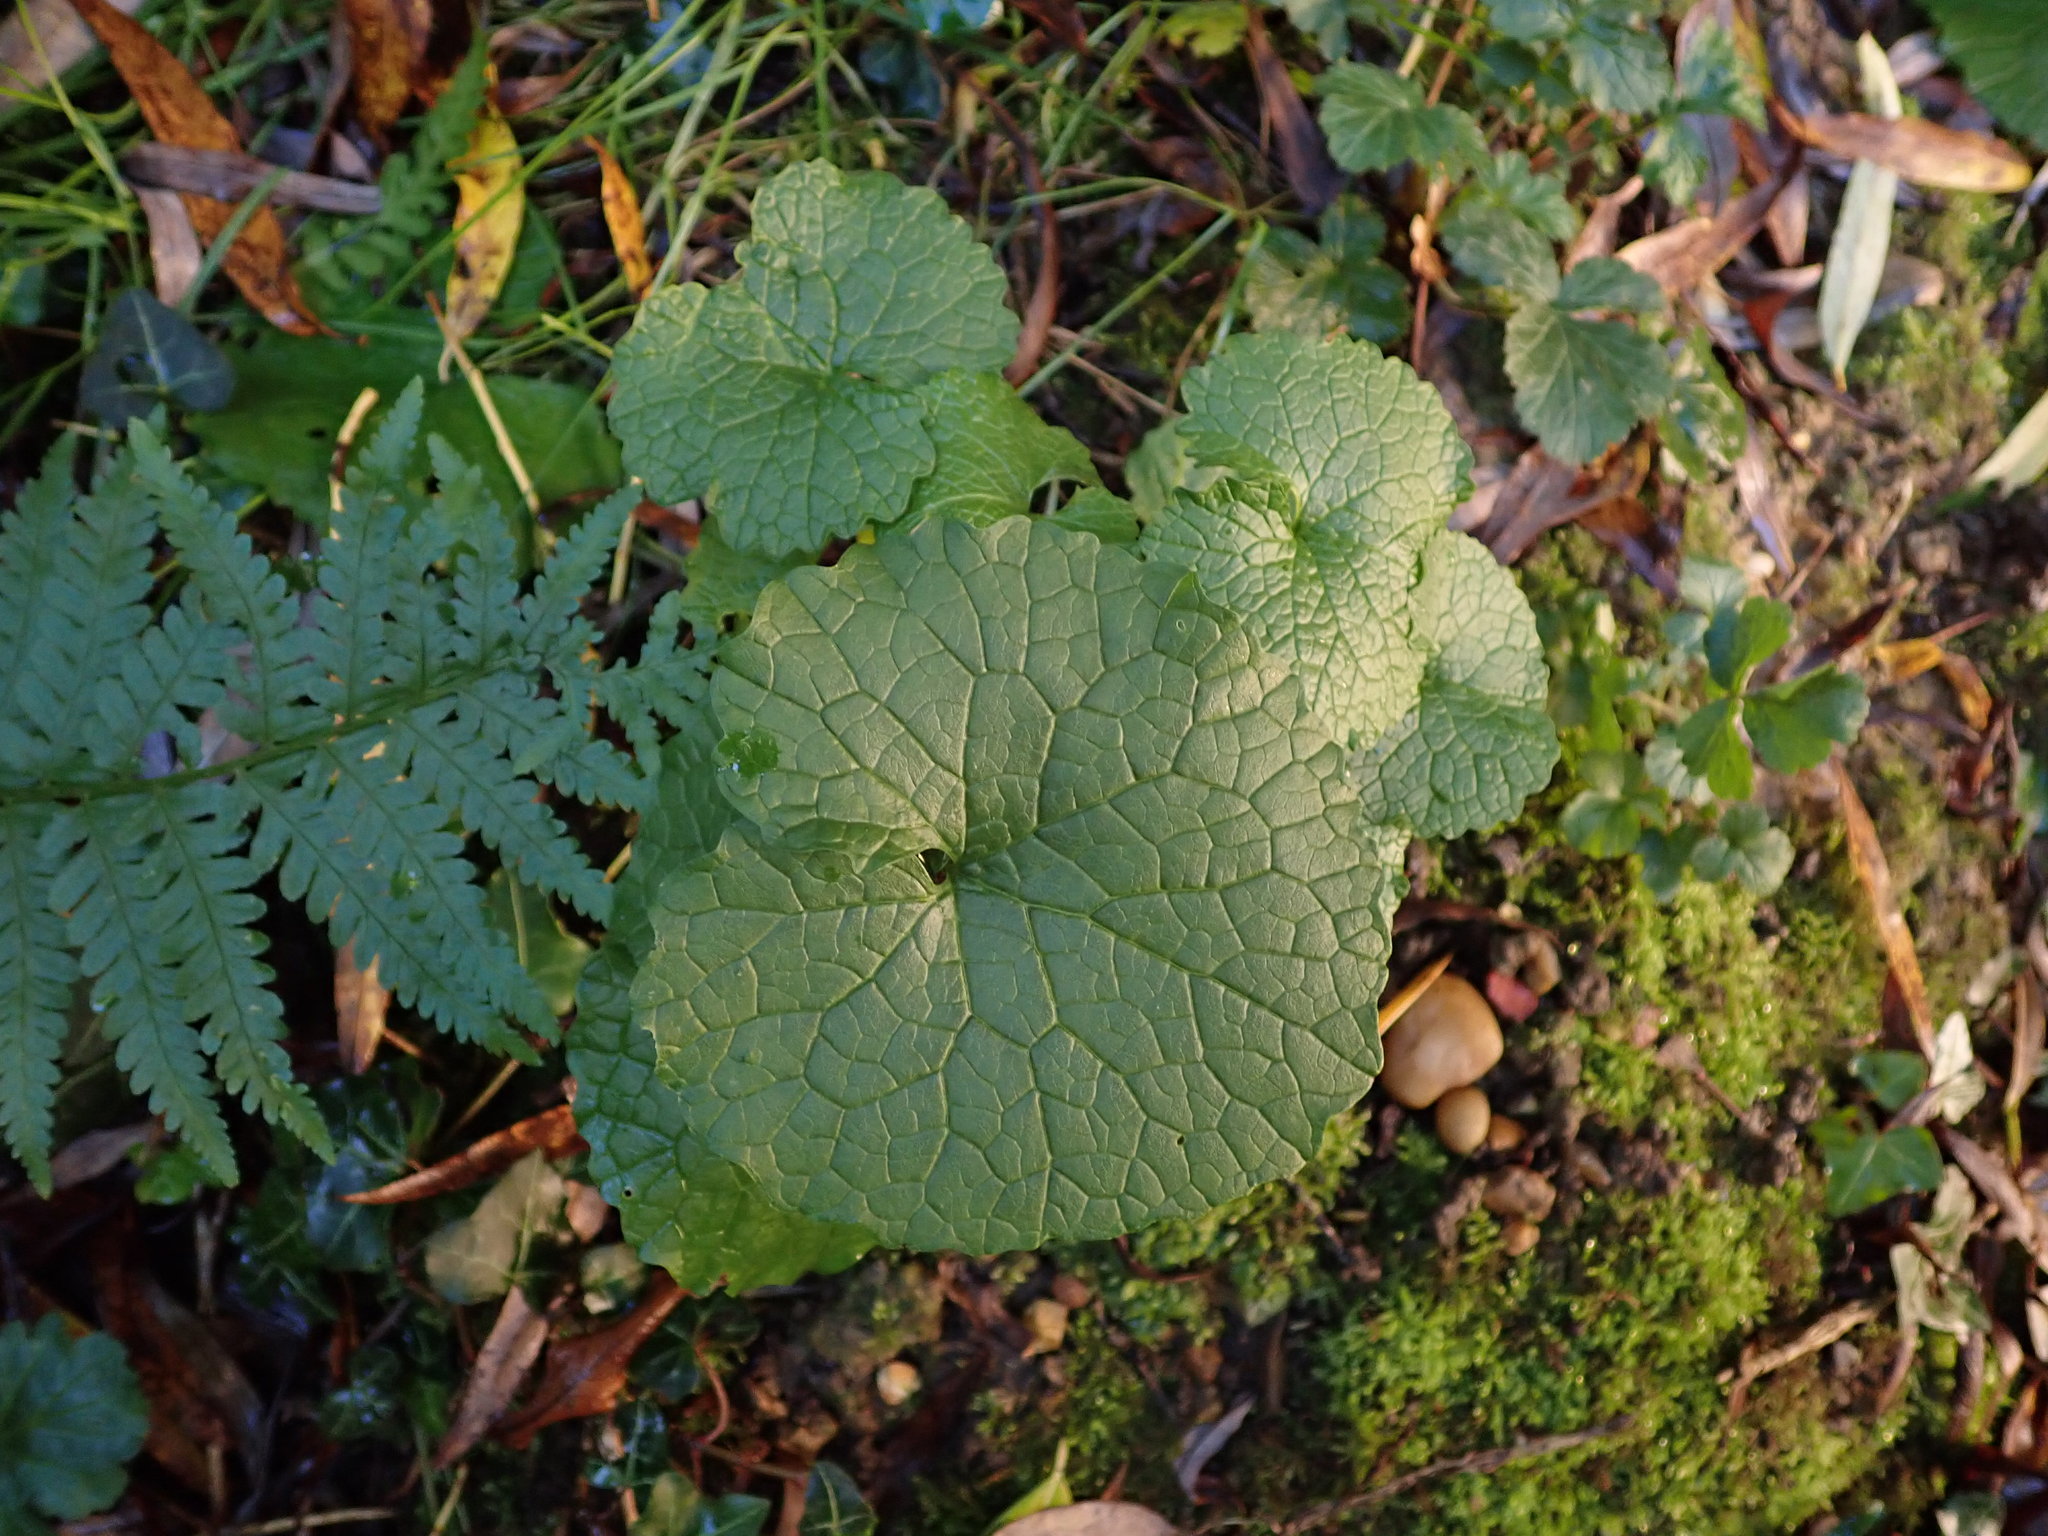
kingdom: Plantae
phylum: Tracheophyta
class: Magnoliopsida
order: Brassicales
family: Brassicaceae
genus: Alliaria
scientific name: Alliaria petiolata
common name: Garlic mustard
